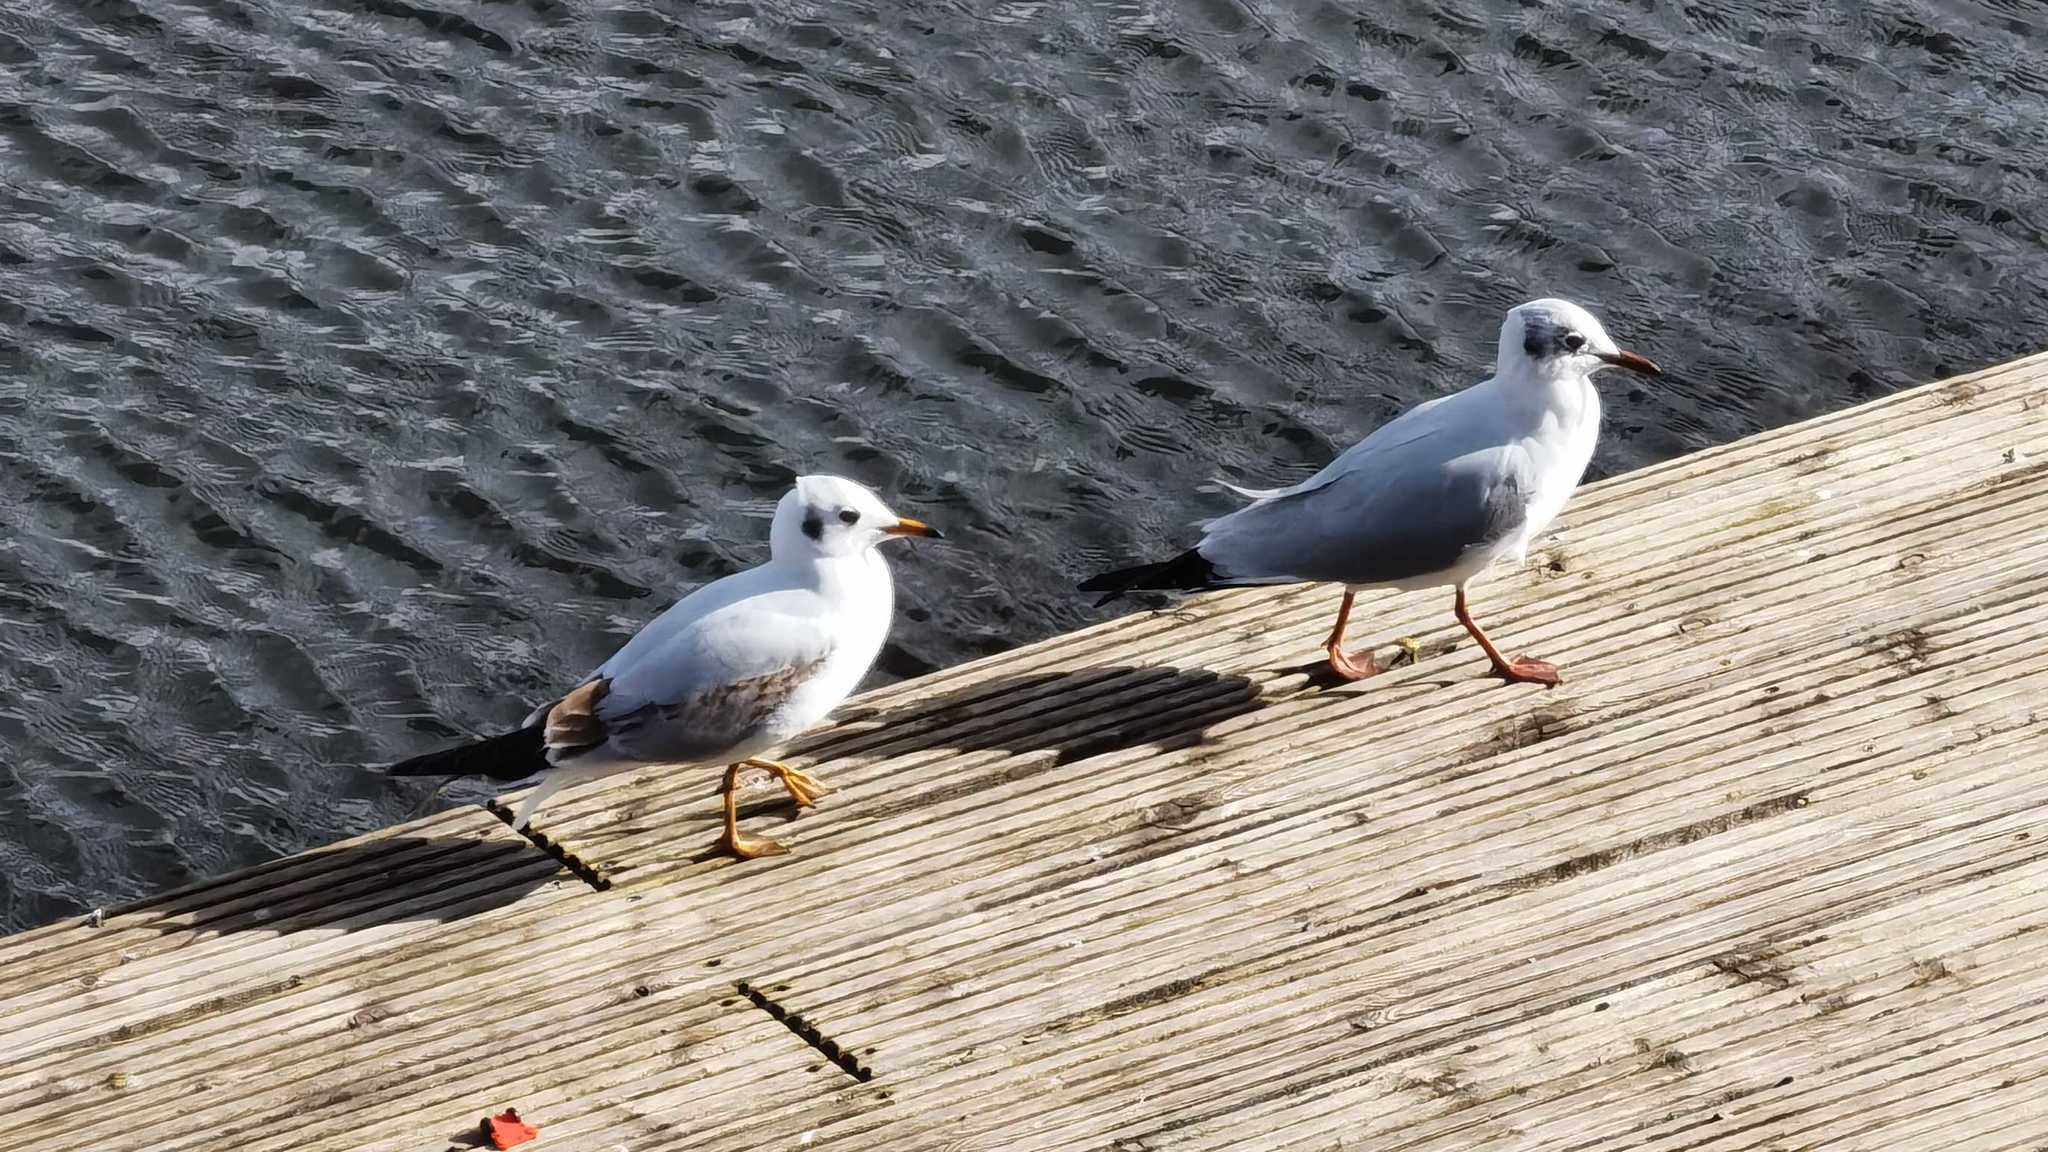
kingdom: Animalia
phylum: Chordata
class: Aves
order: Charadriiformes
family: Laridae
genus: Chroicocephalus
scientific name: Chroicocephalus ridibundus
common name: Black-headed gull
